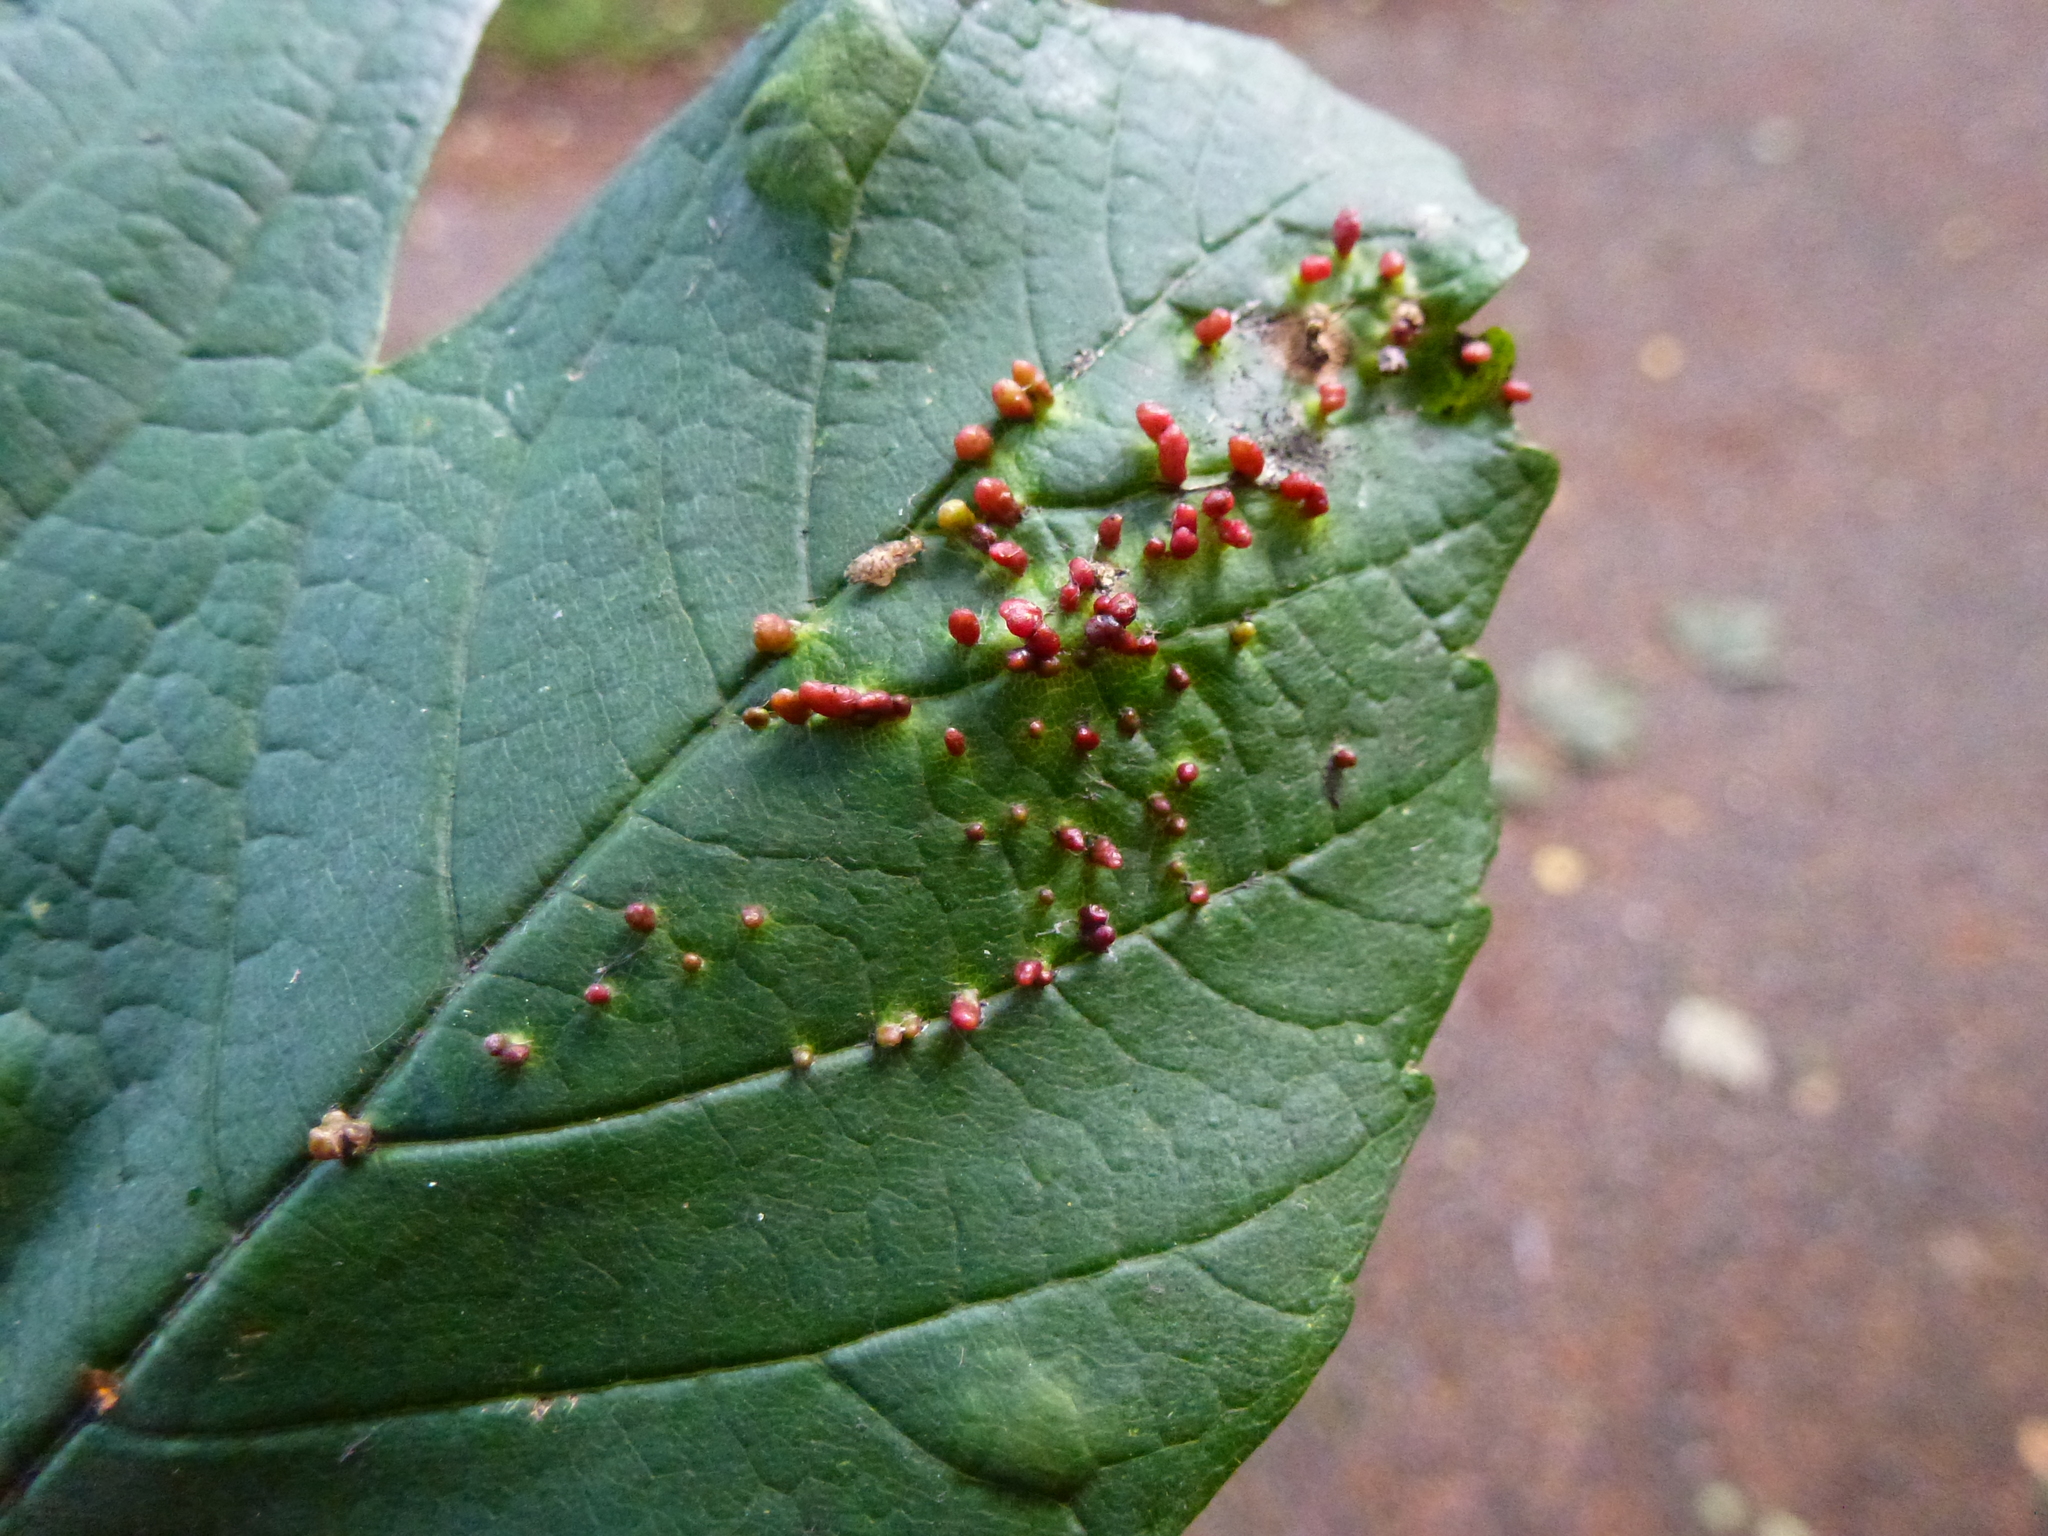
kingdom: Animalia
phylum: Arthropoda
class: Arachnida
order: Trombidiformes
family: Eriophyidae
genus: Aceria
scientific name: Aceria cephaloneus
